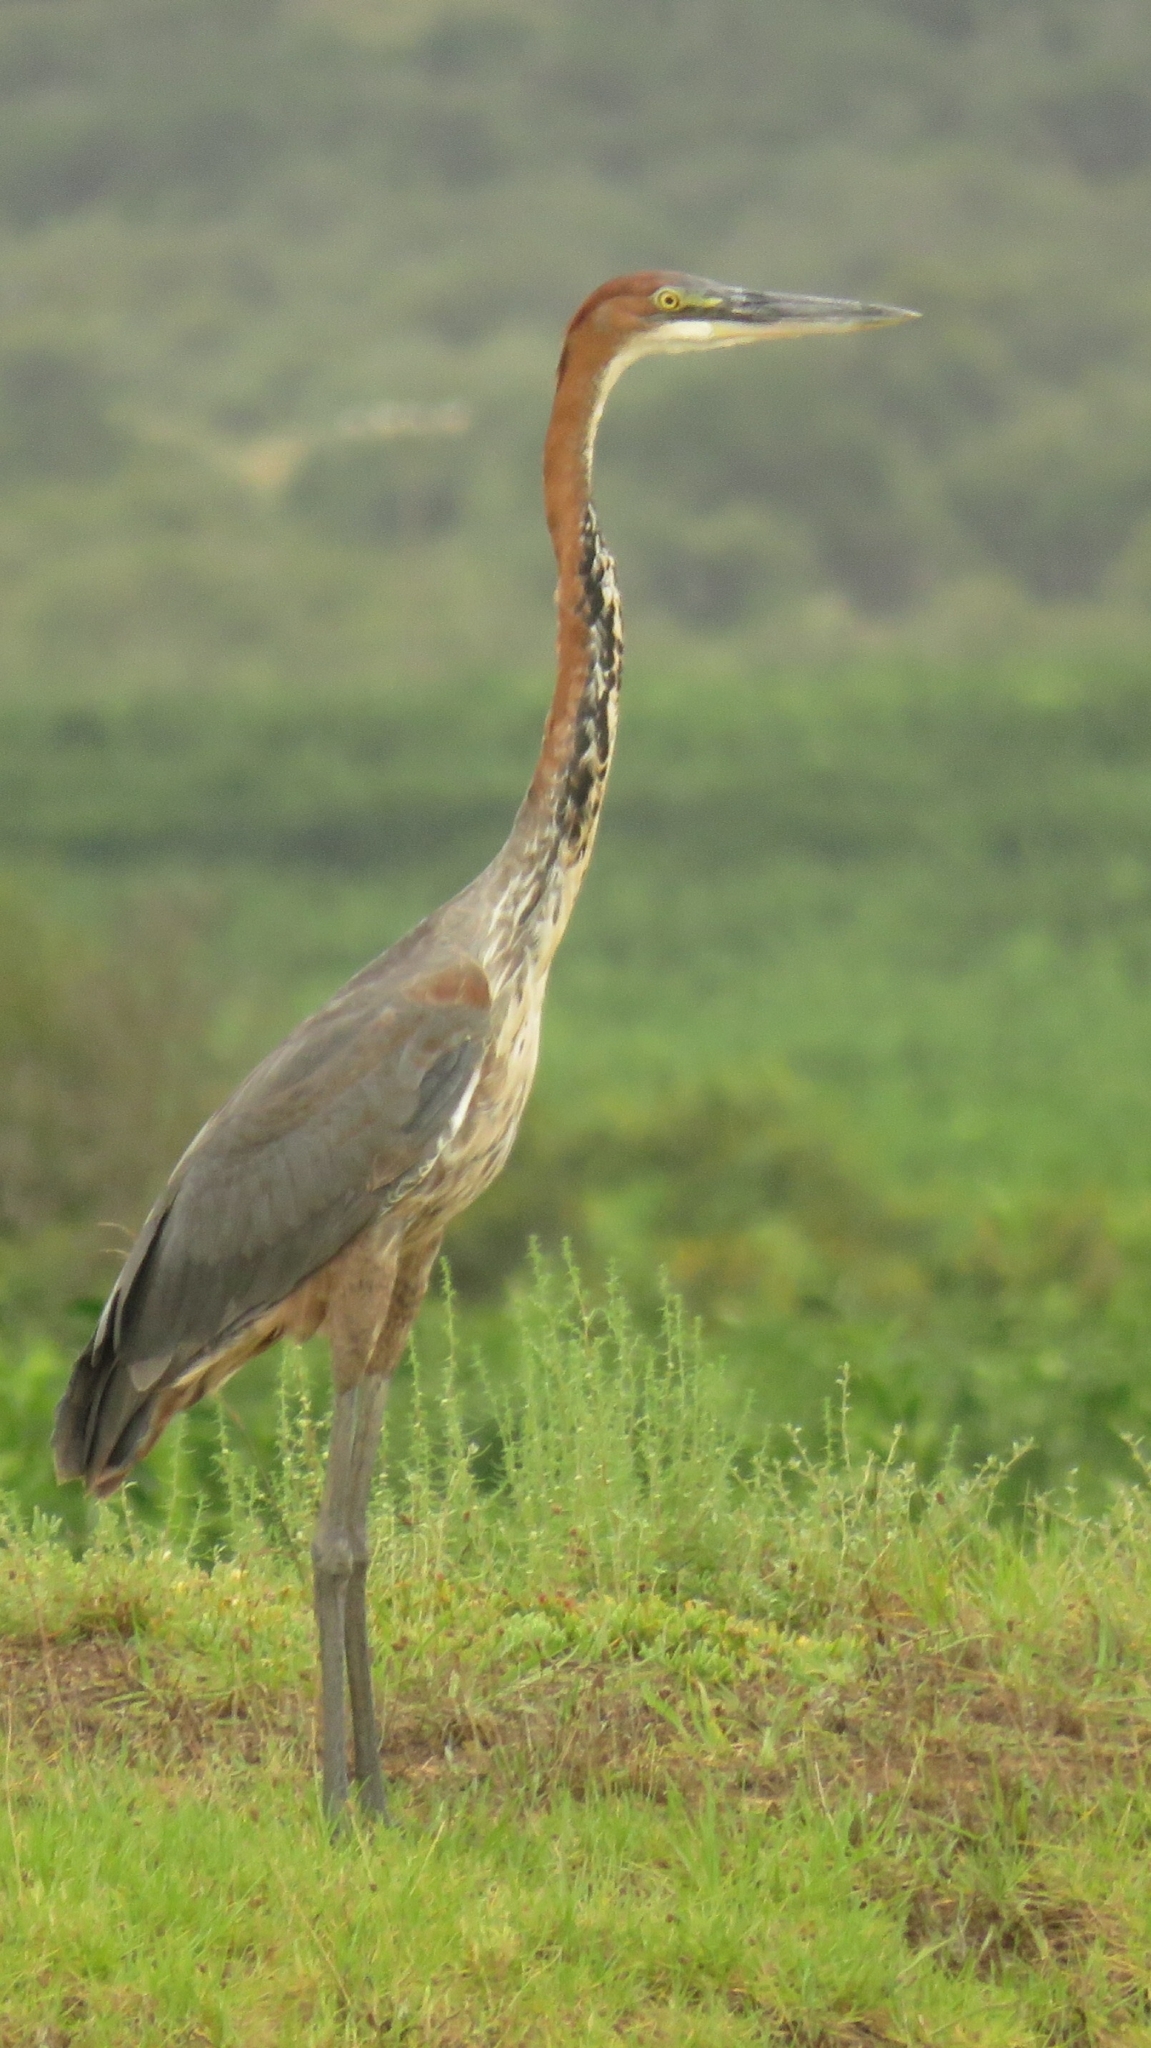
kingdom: Animalia
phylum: Chordata
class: Aves
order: Pelecaniformes
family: Ardeidae
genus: Ardea
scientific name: Ardea goliath
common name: Goliath heron
